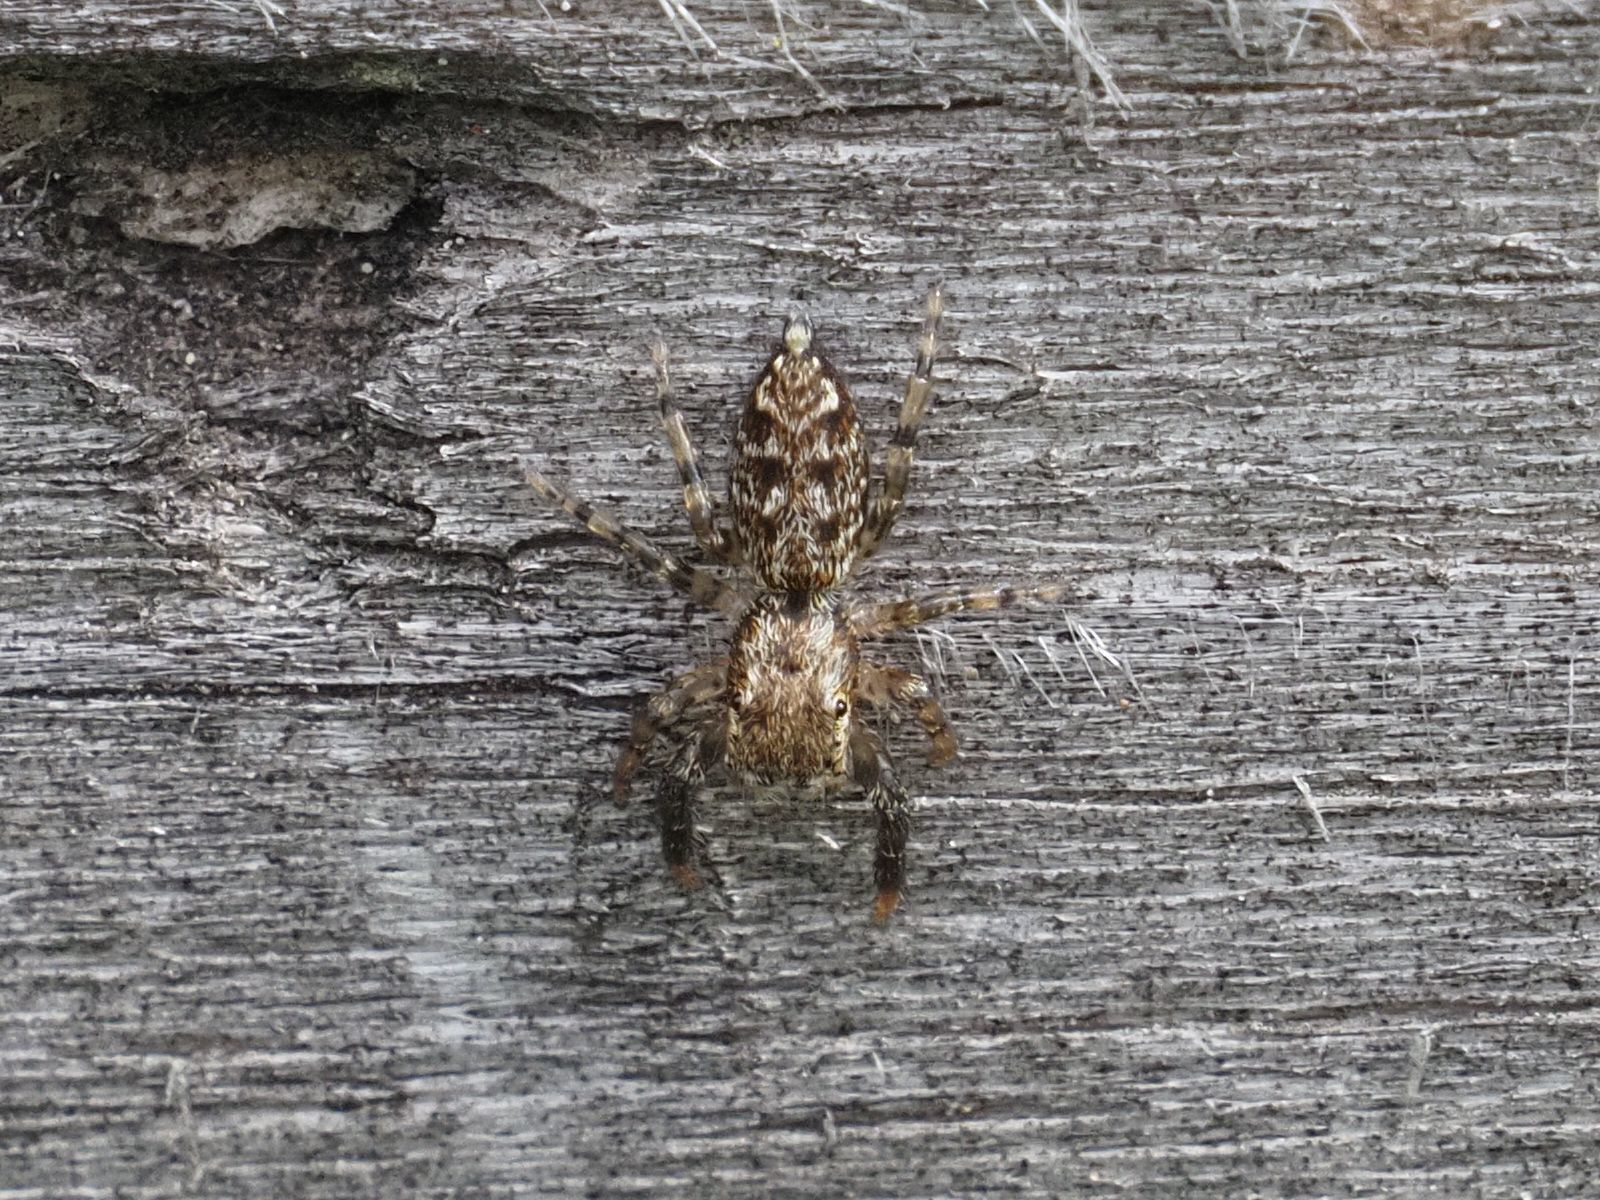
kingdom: Animalia
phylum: Arthropoda
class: Arachnida
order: Araneae
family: Salticidae
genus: Marpissa
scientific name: Marpissa muscosa
